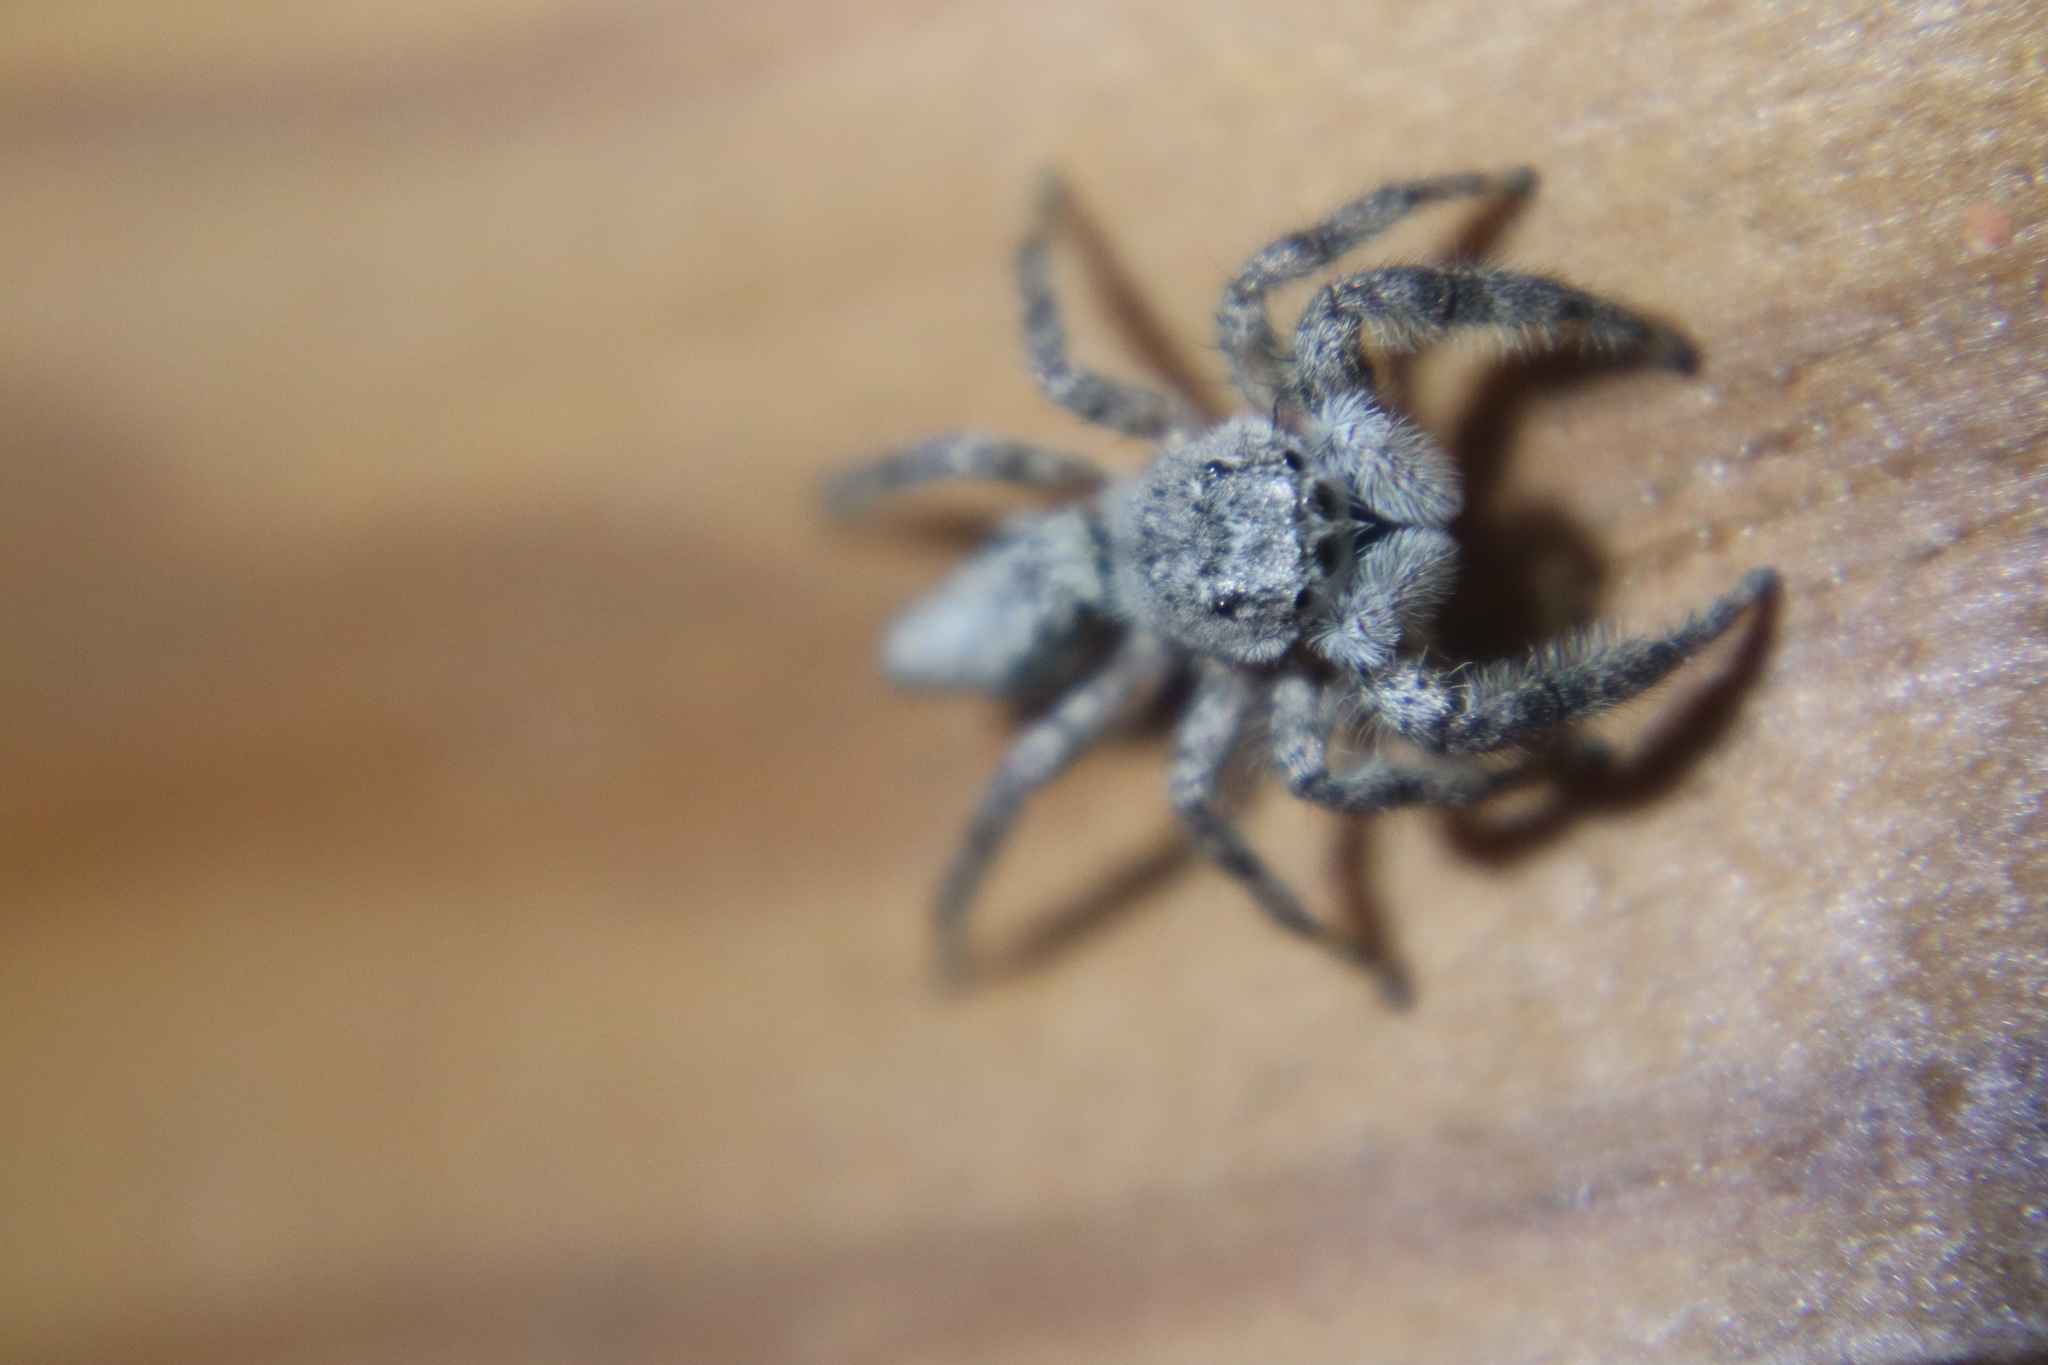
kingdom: Animalia
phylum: Arthropoda
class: Arachnida
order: Araneae
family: Salticidae
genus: Platycryptus
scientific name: Platycryptus undatus
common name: Tan jumping spider
